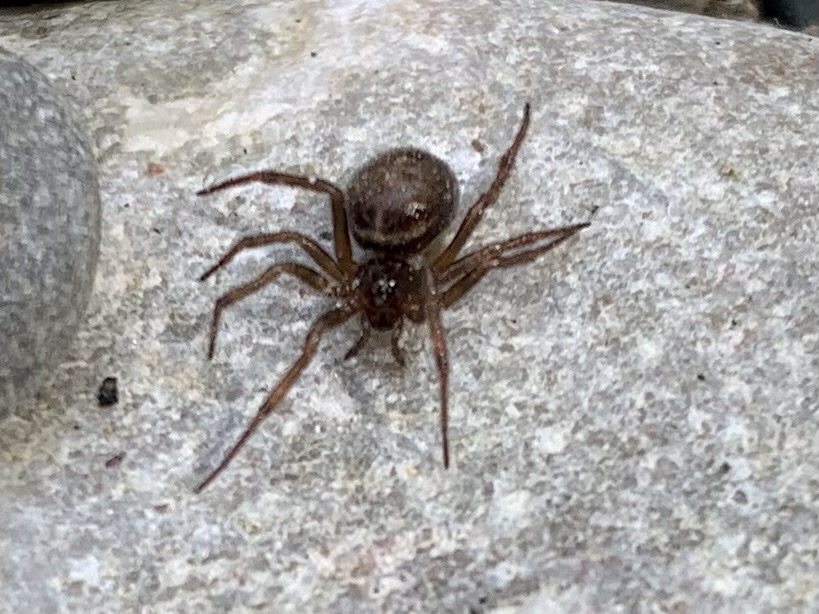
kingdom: Animalia
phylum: Arthropoda
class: Arachnida
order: Araneae
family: Theridiidae
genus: Steatoda
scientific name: Steatoda bipunctata
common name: False widow
